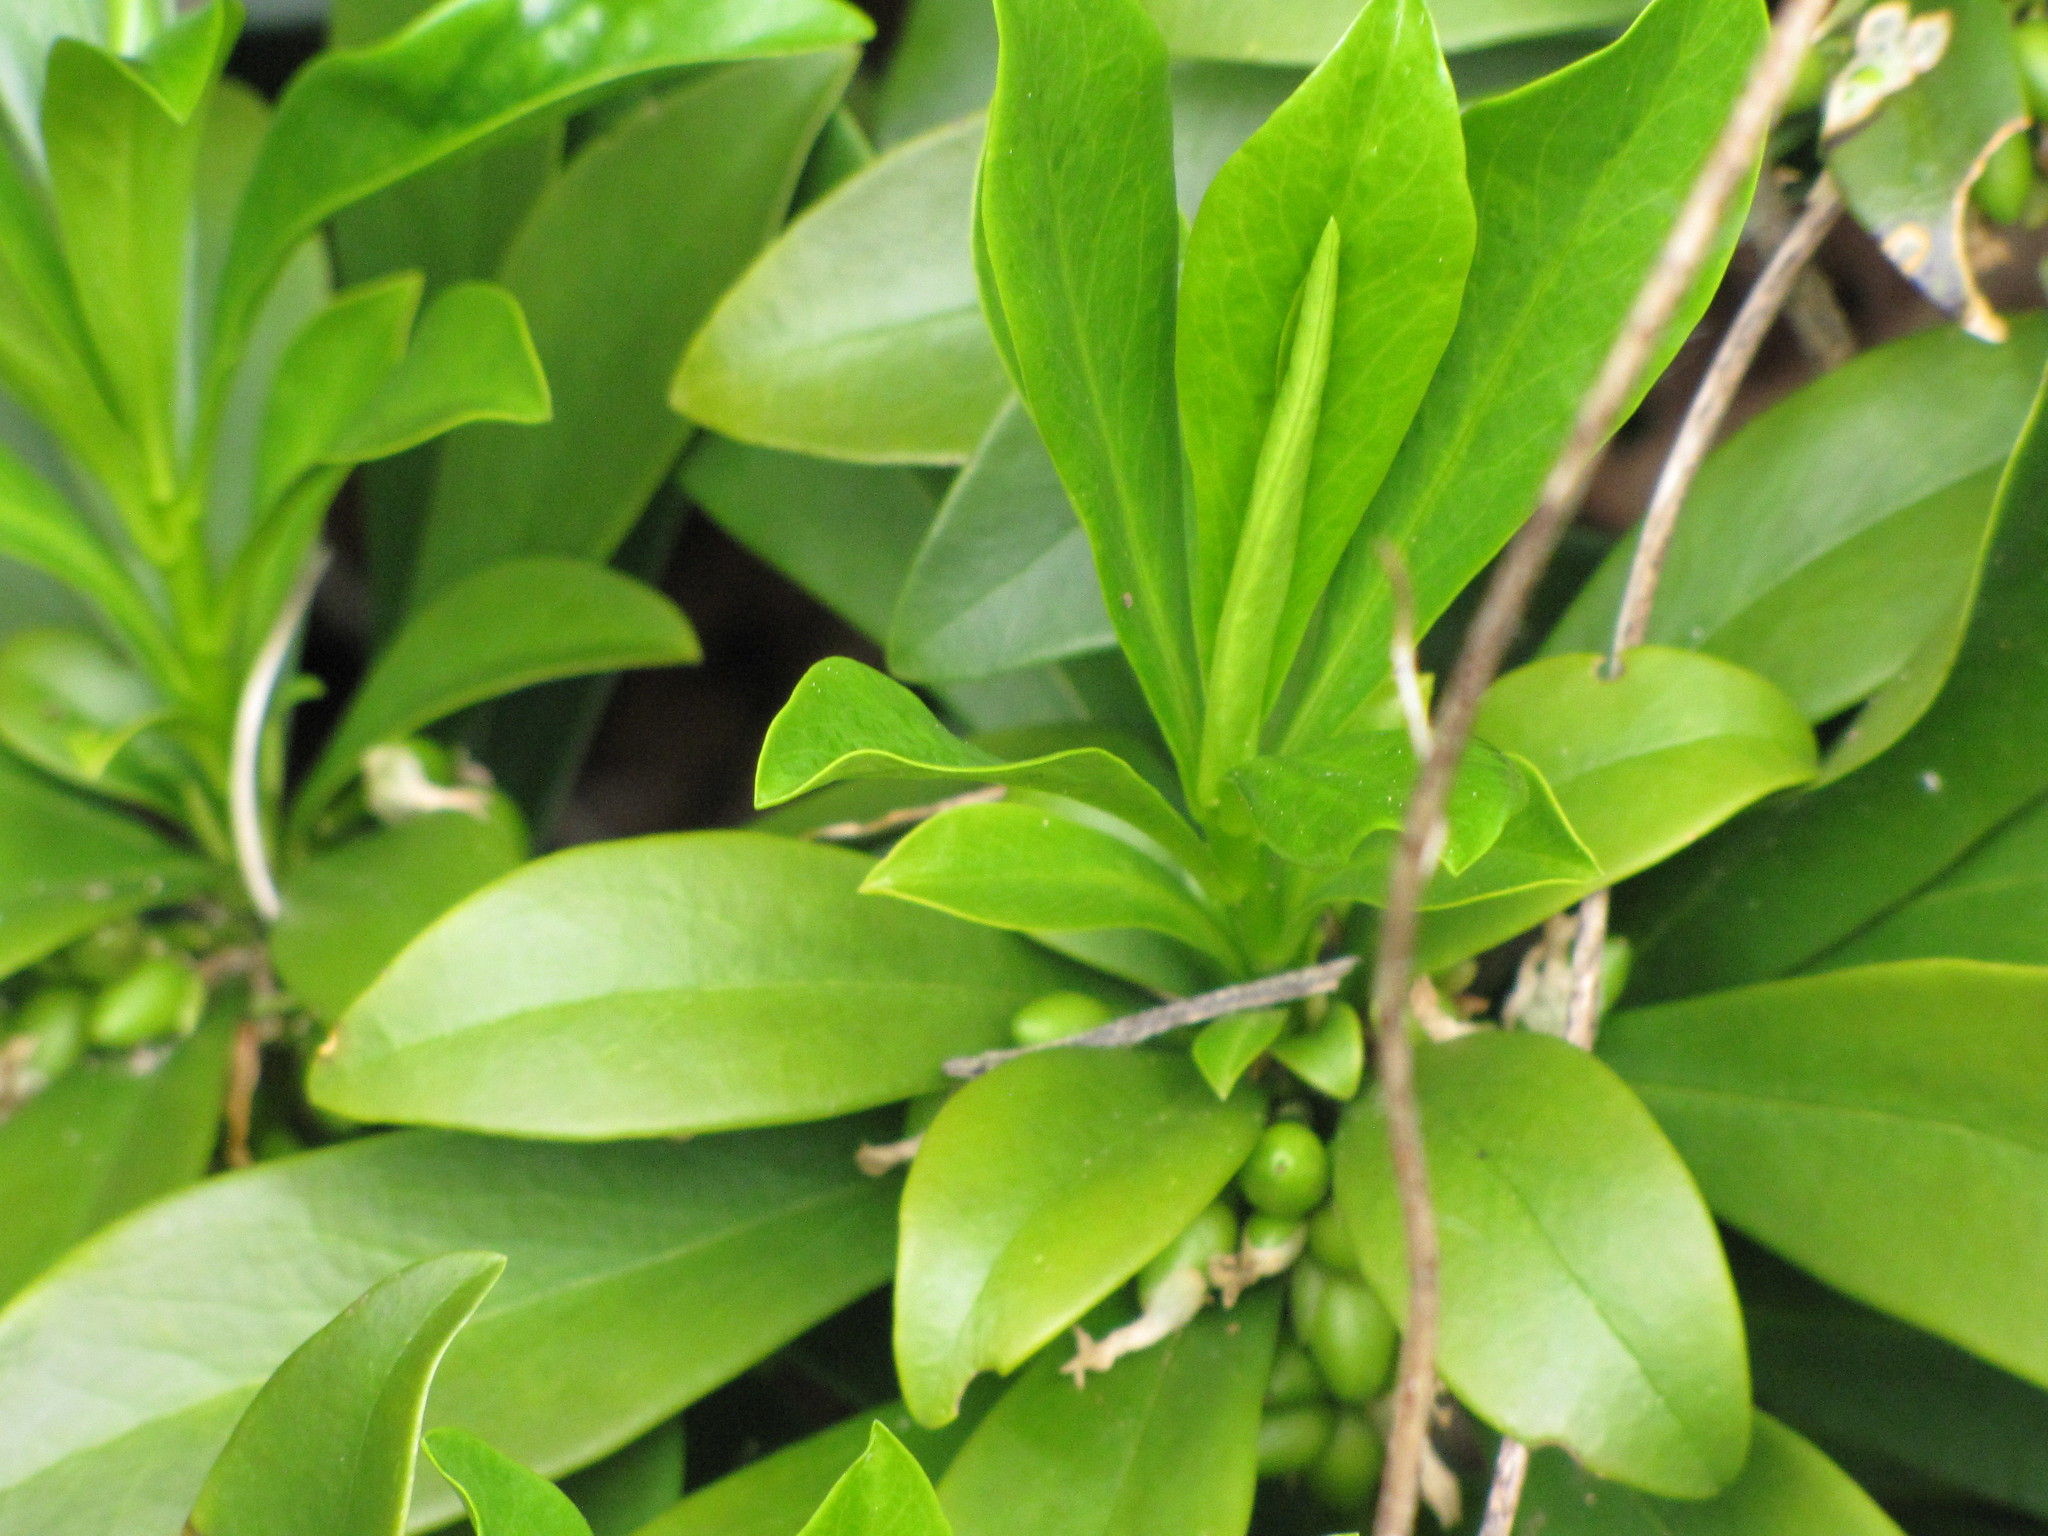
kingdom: Plantae
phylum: Tracheophyta
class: Magnoliopsida
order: Malvales
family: Thymelaeaceae
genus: Daphne
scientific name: Daphne laureola
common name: Spurge-laurel
